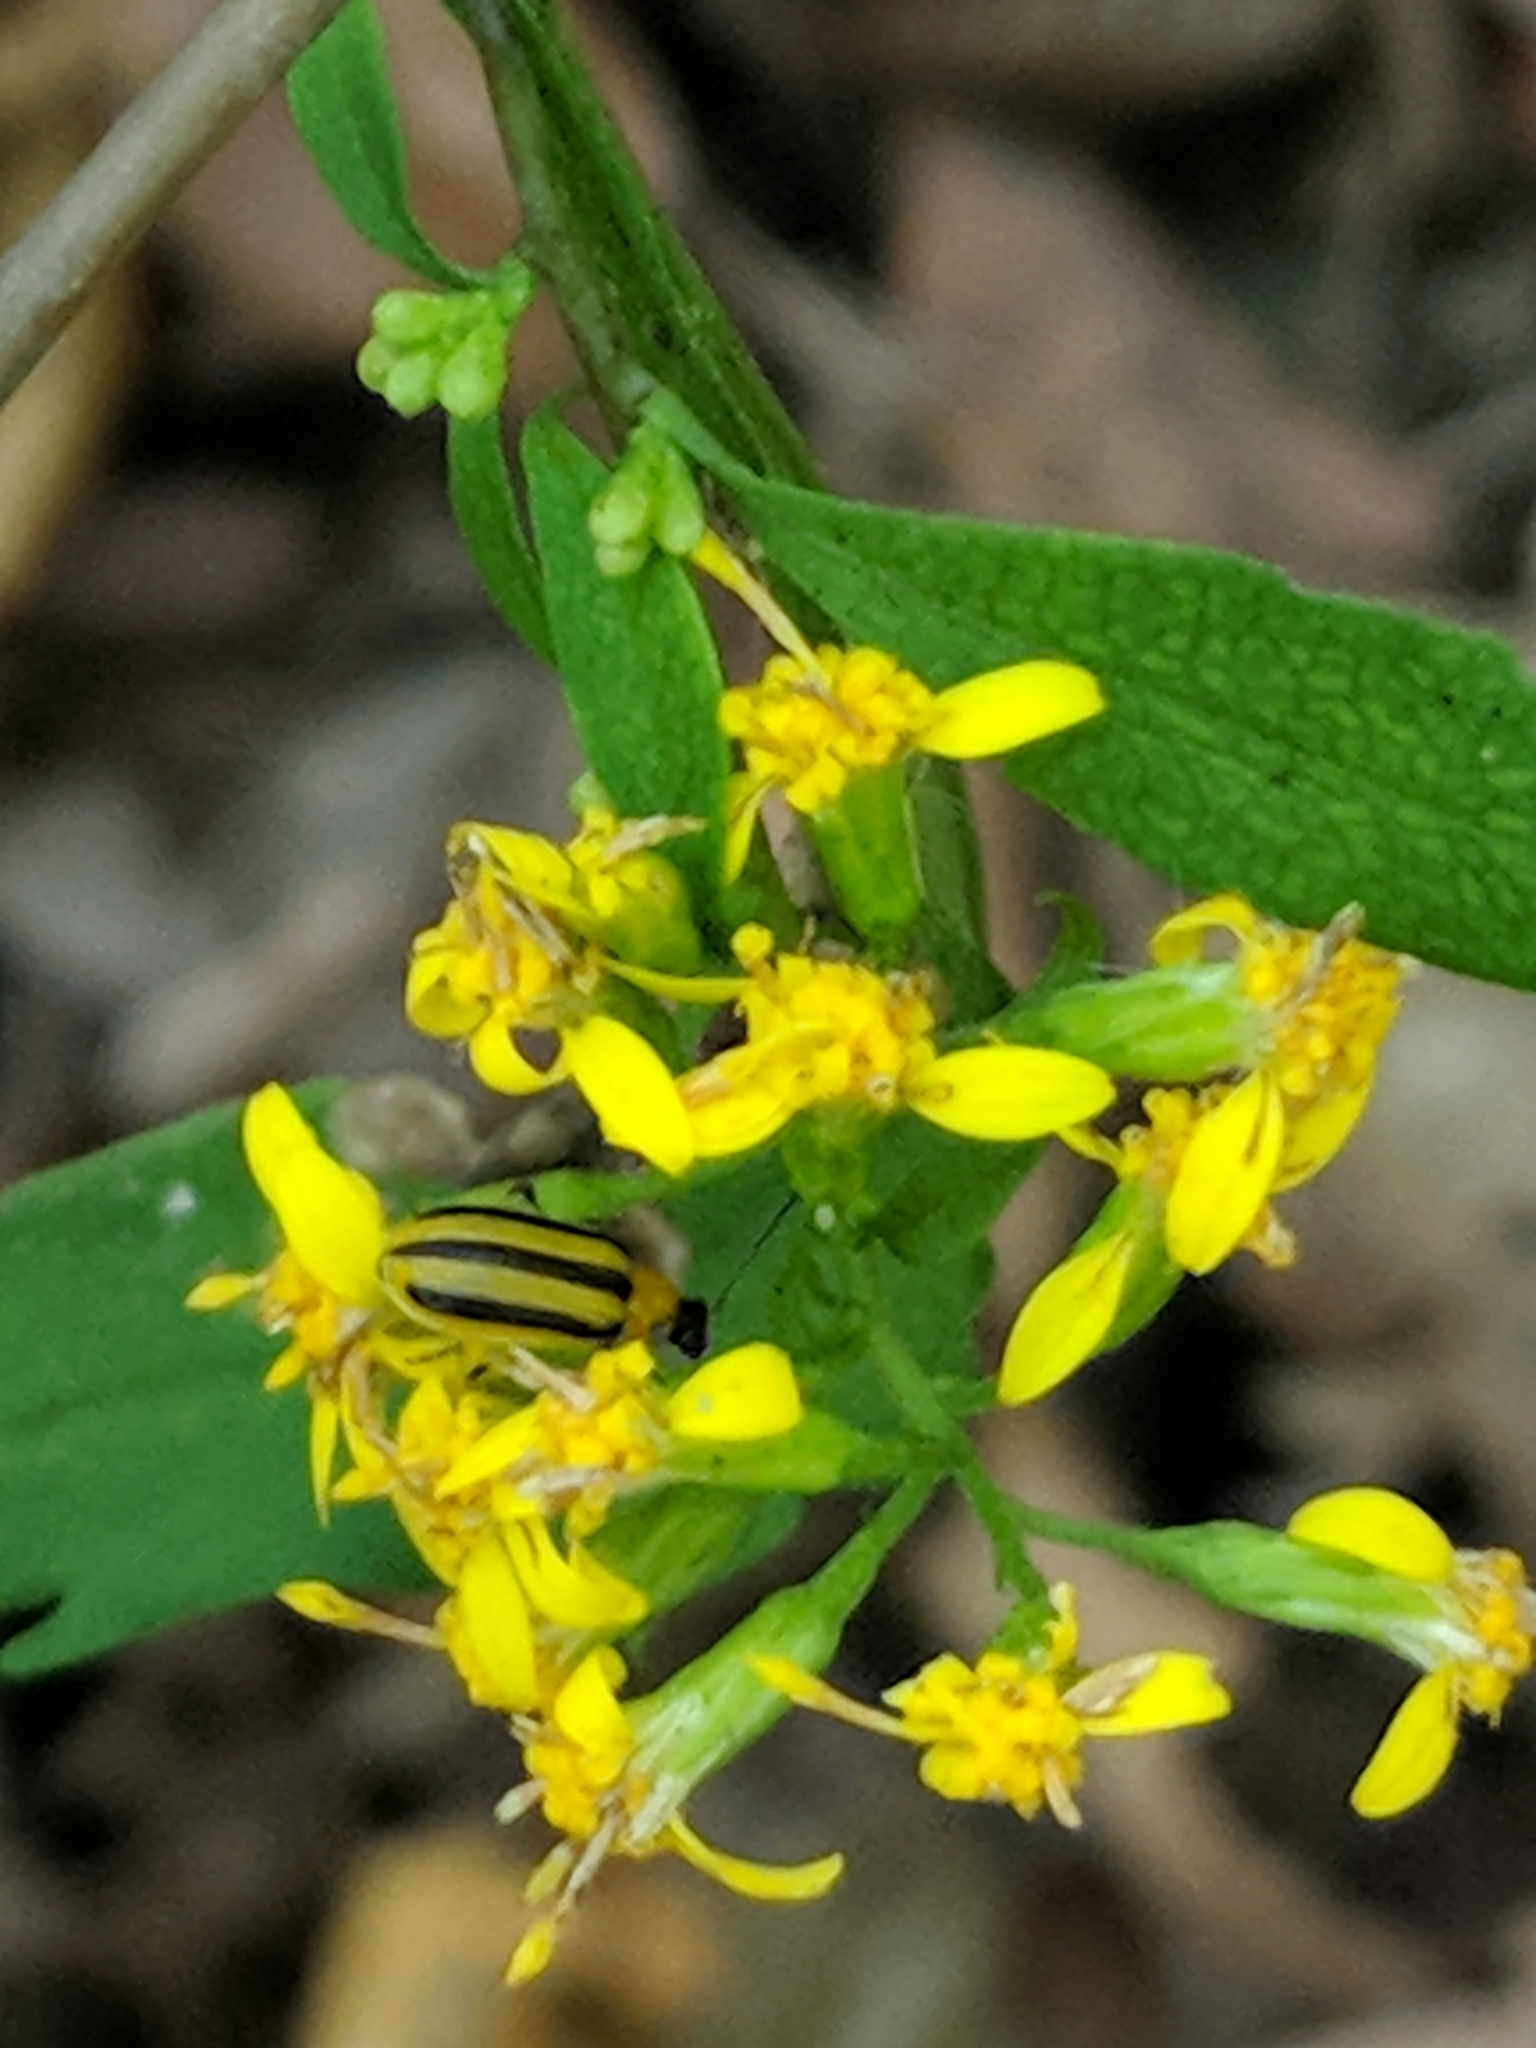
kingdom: Animalia
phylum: Arthropoda
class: Insecta
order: Coleoptera
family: Chrysomelidae
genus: Acalymma
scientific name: Acalymma vittatum
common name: Striped cucumber beetle
